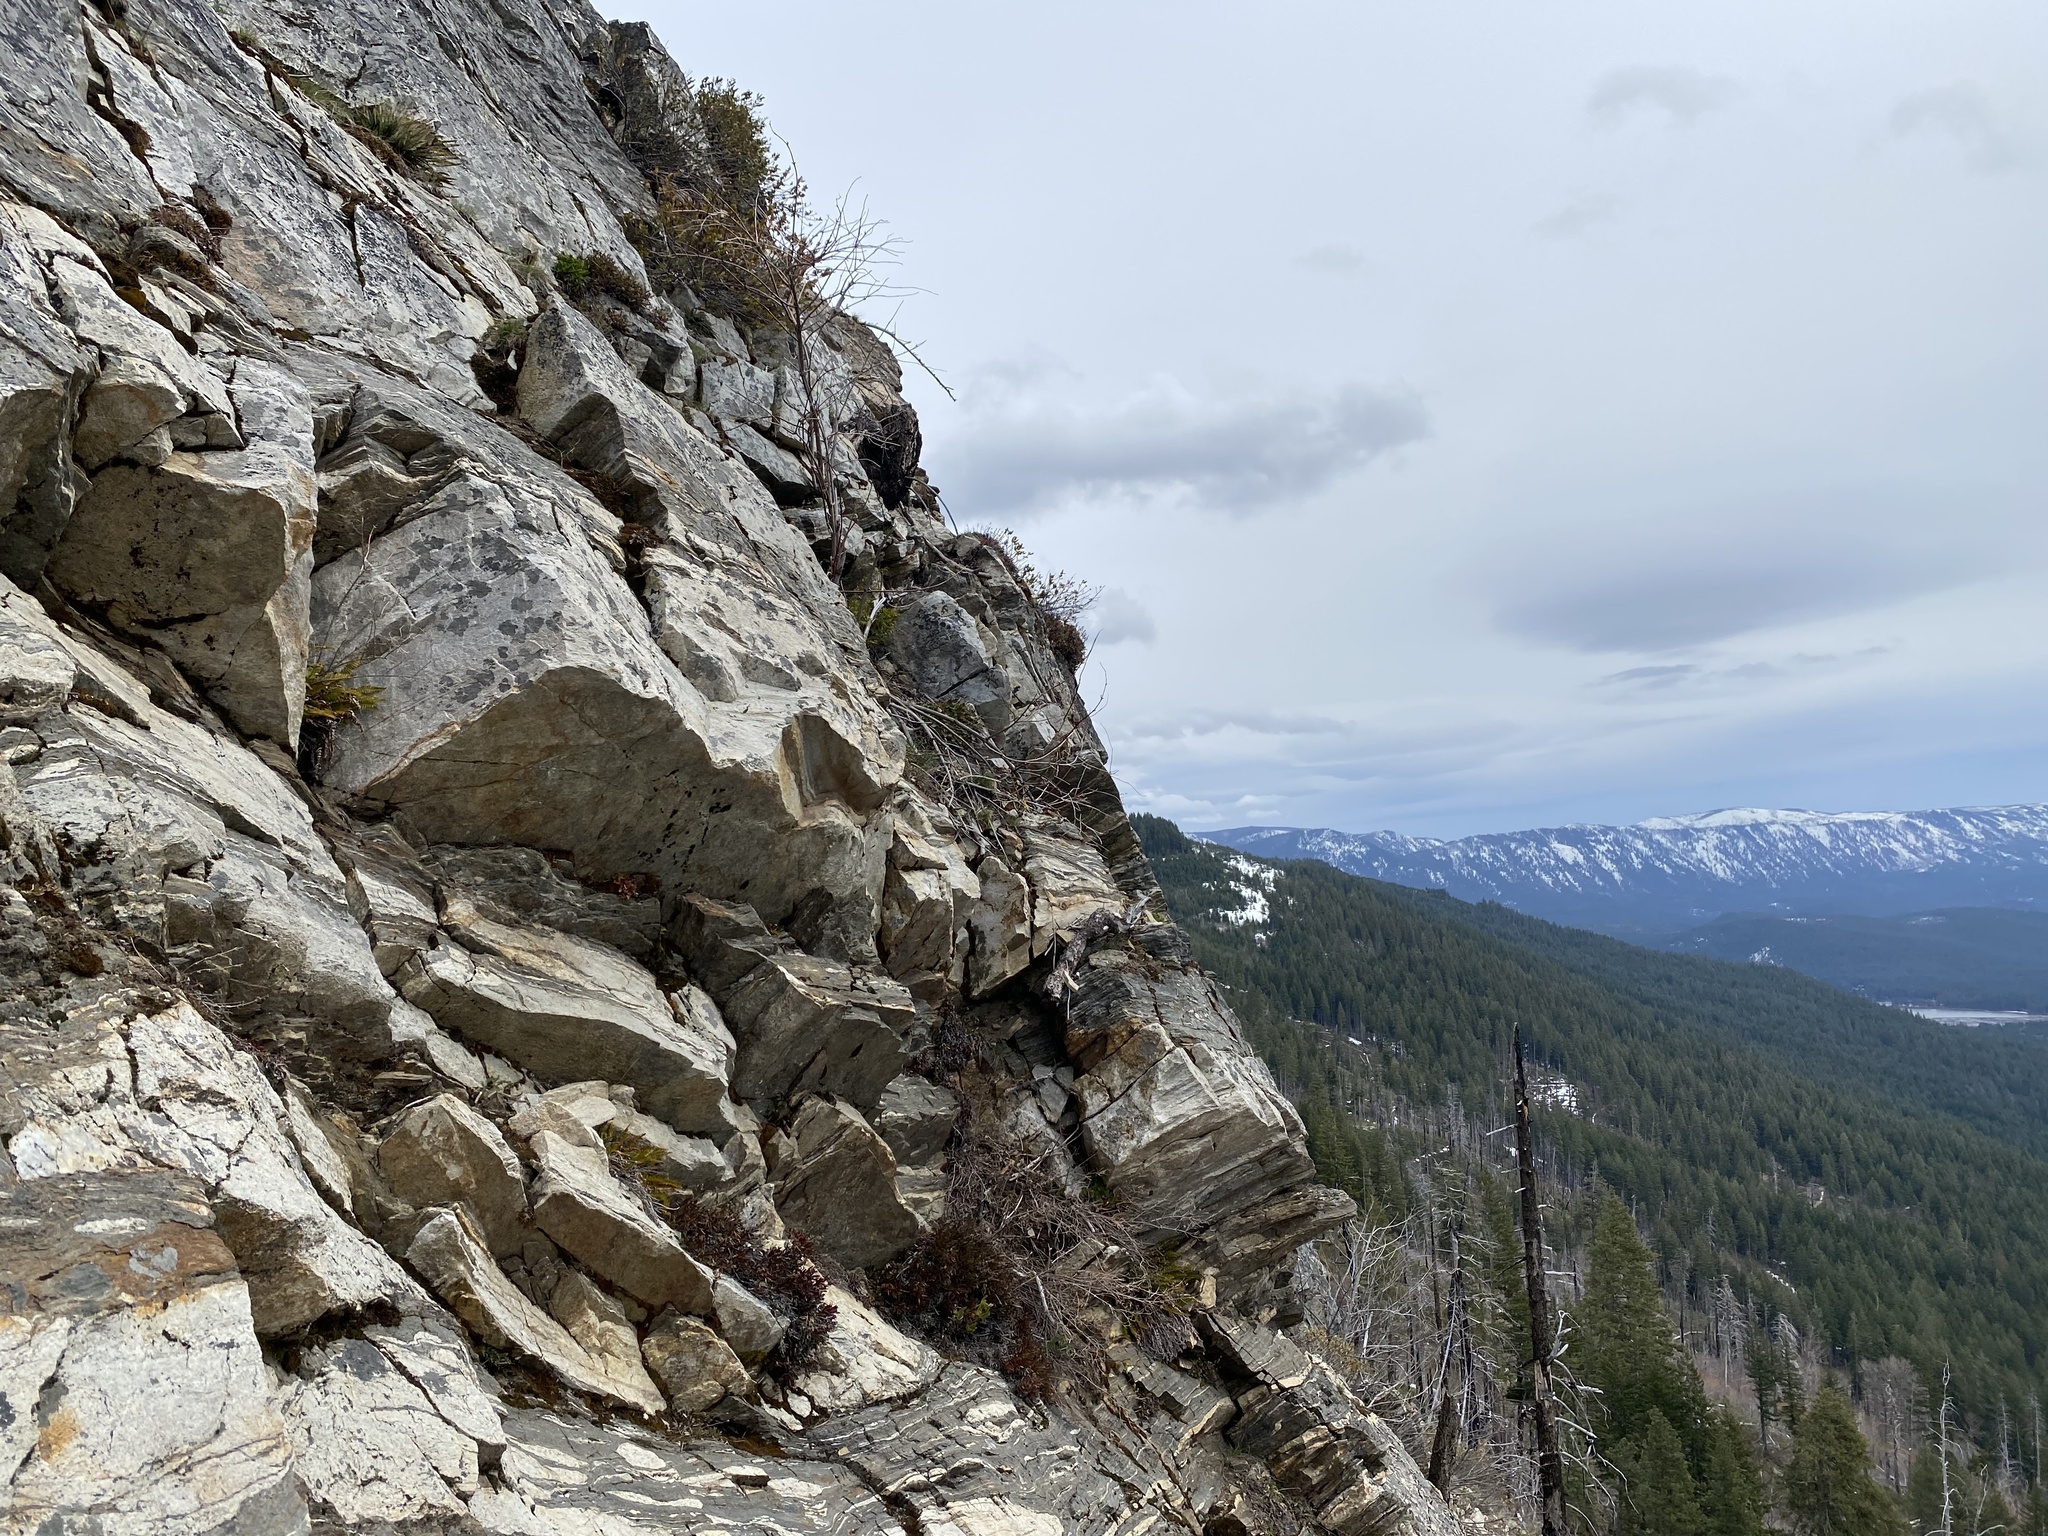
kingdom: Plantae
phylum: Tracheophyta
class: Magnoliopsida
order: Caryophyllales
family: Montiaceae
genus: Lewisiopsis
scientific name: Lewisiopsis tweedyi
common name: Tweedy's pussypaws
